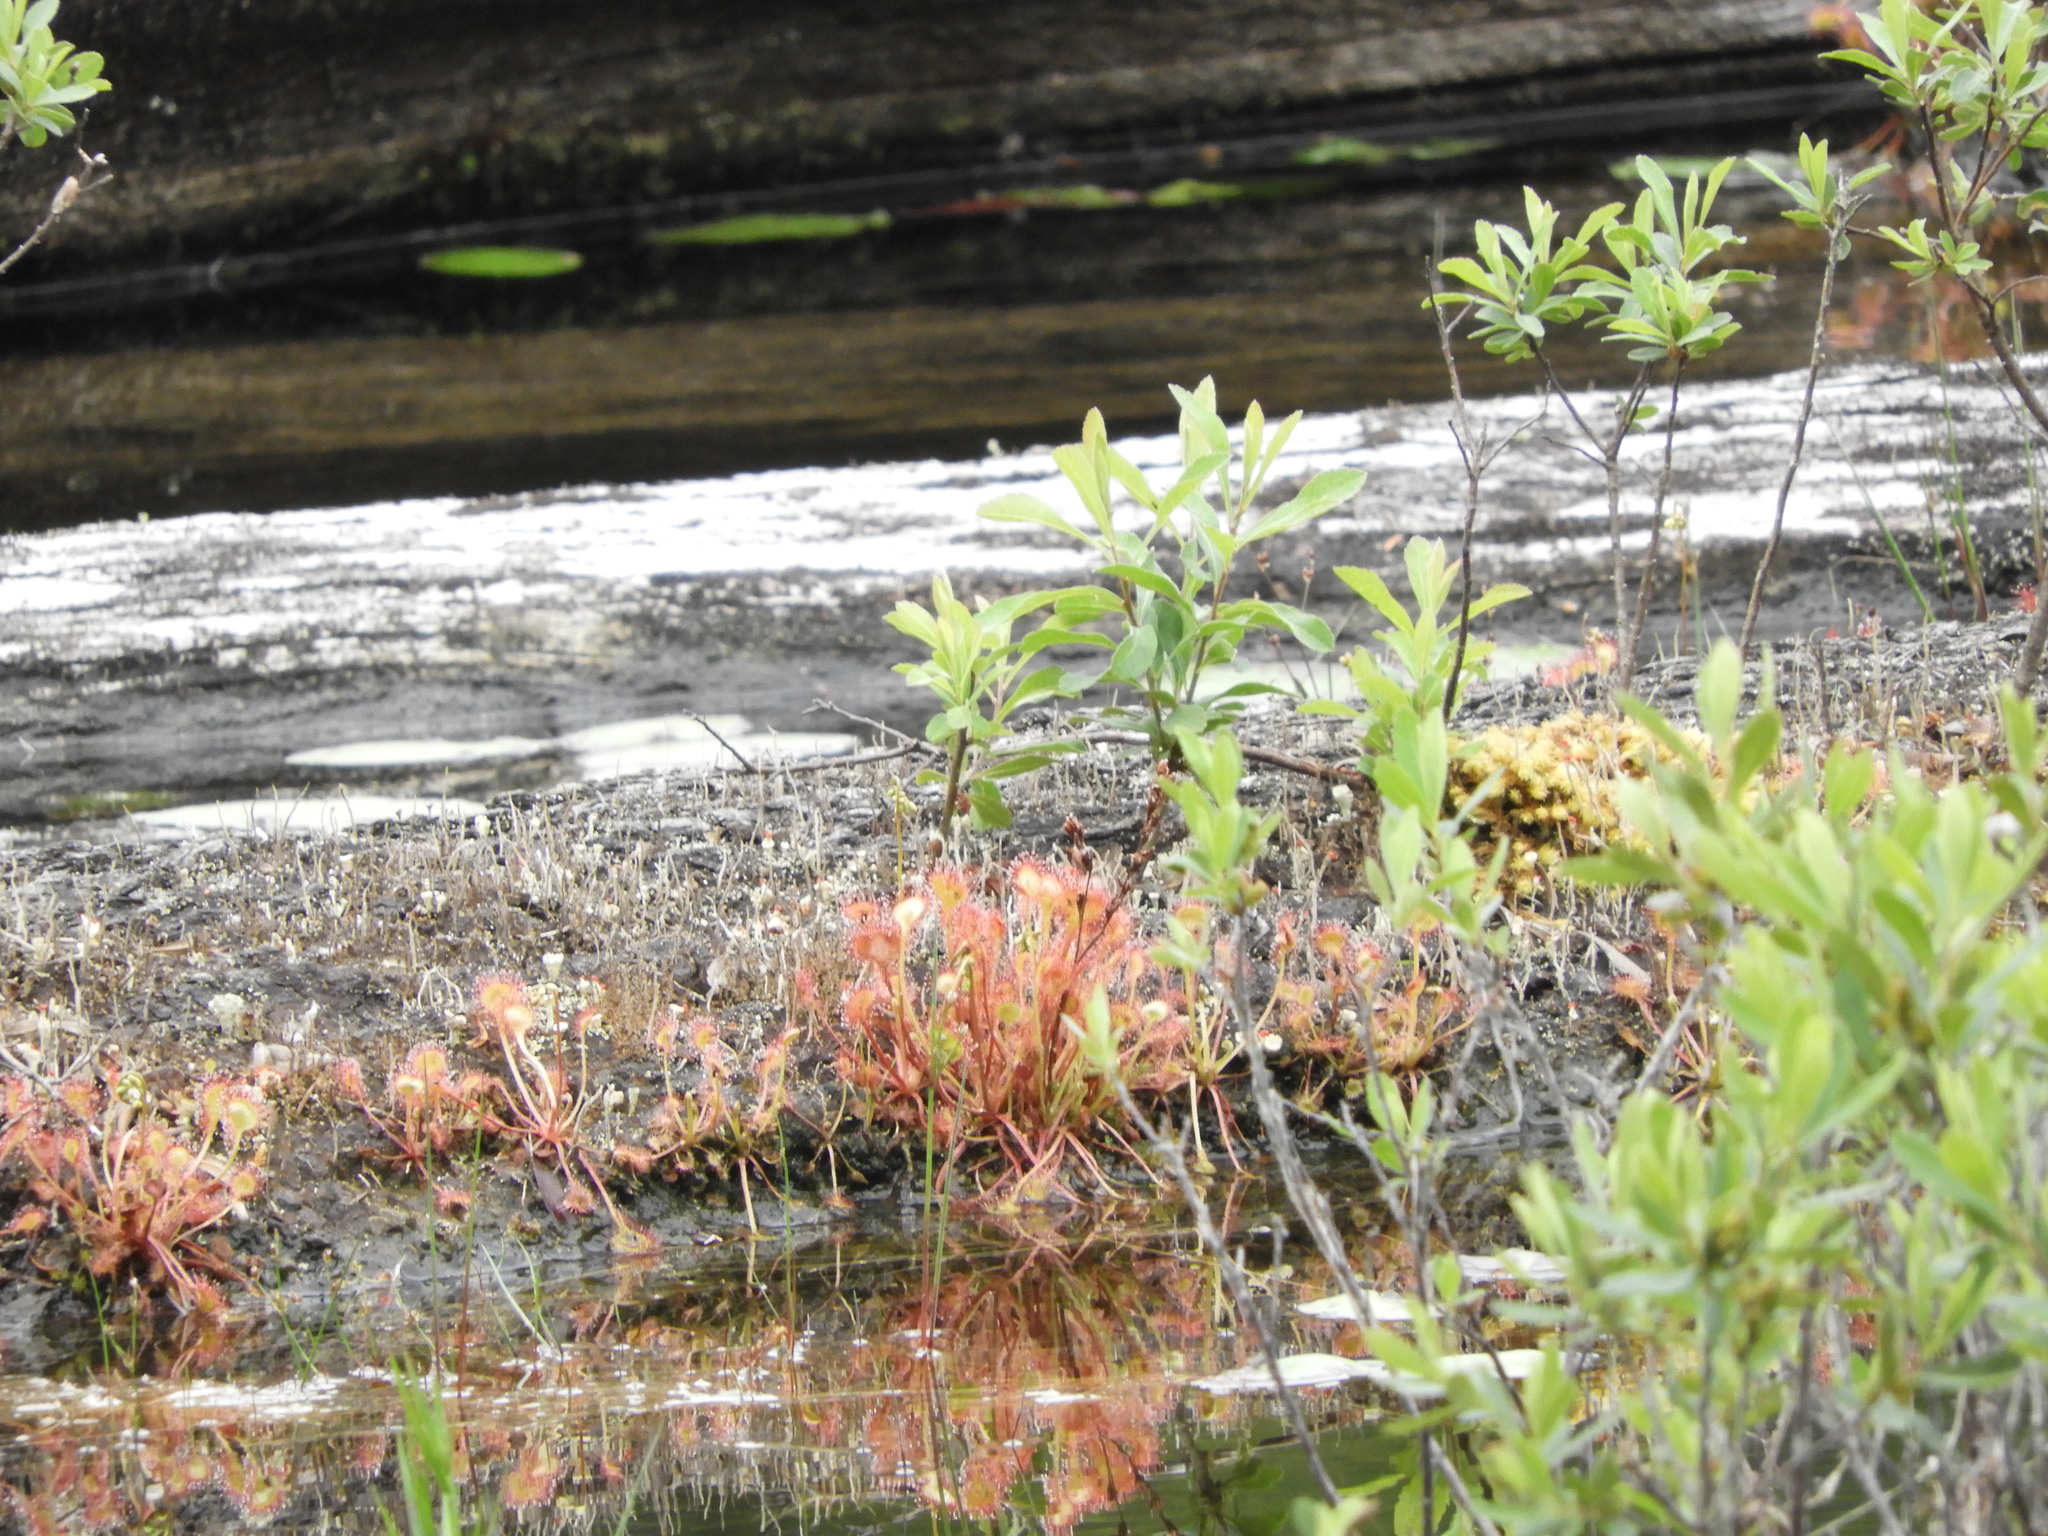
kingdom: Plantae
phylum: Tracheophyta
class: Magnoliopsida
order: Caryophyllales
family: Droseraceae
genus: Drosera
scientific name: Drosera rotundifolia
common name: Round-leaved sundew
